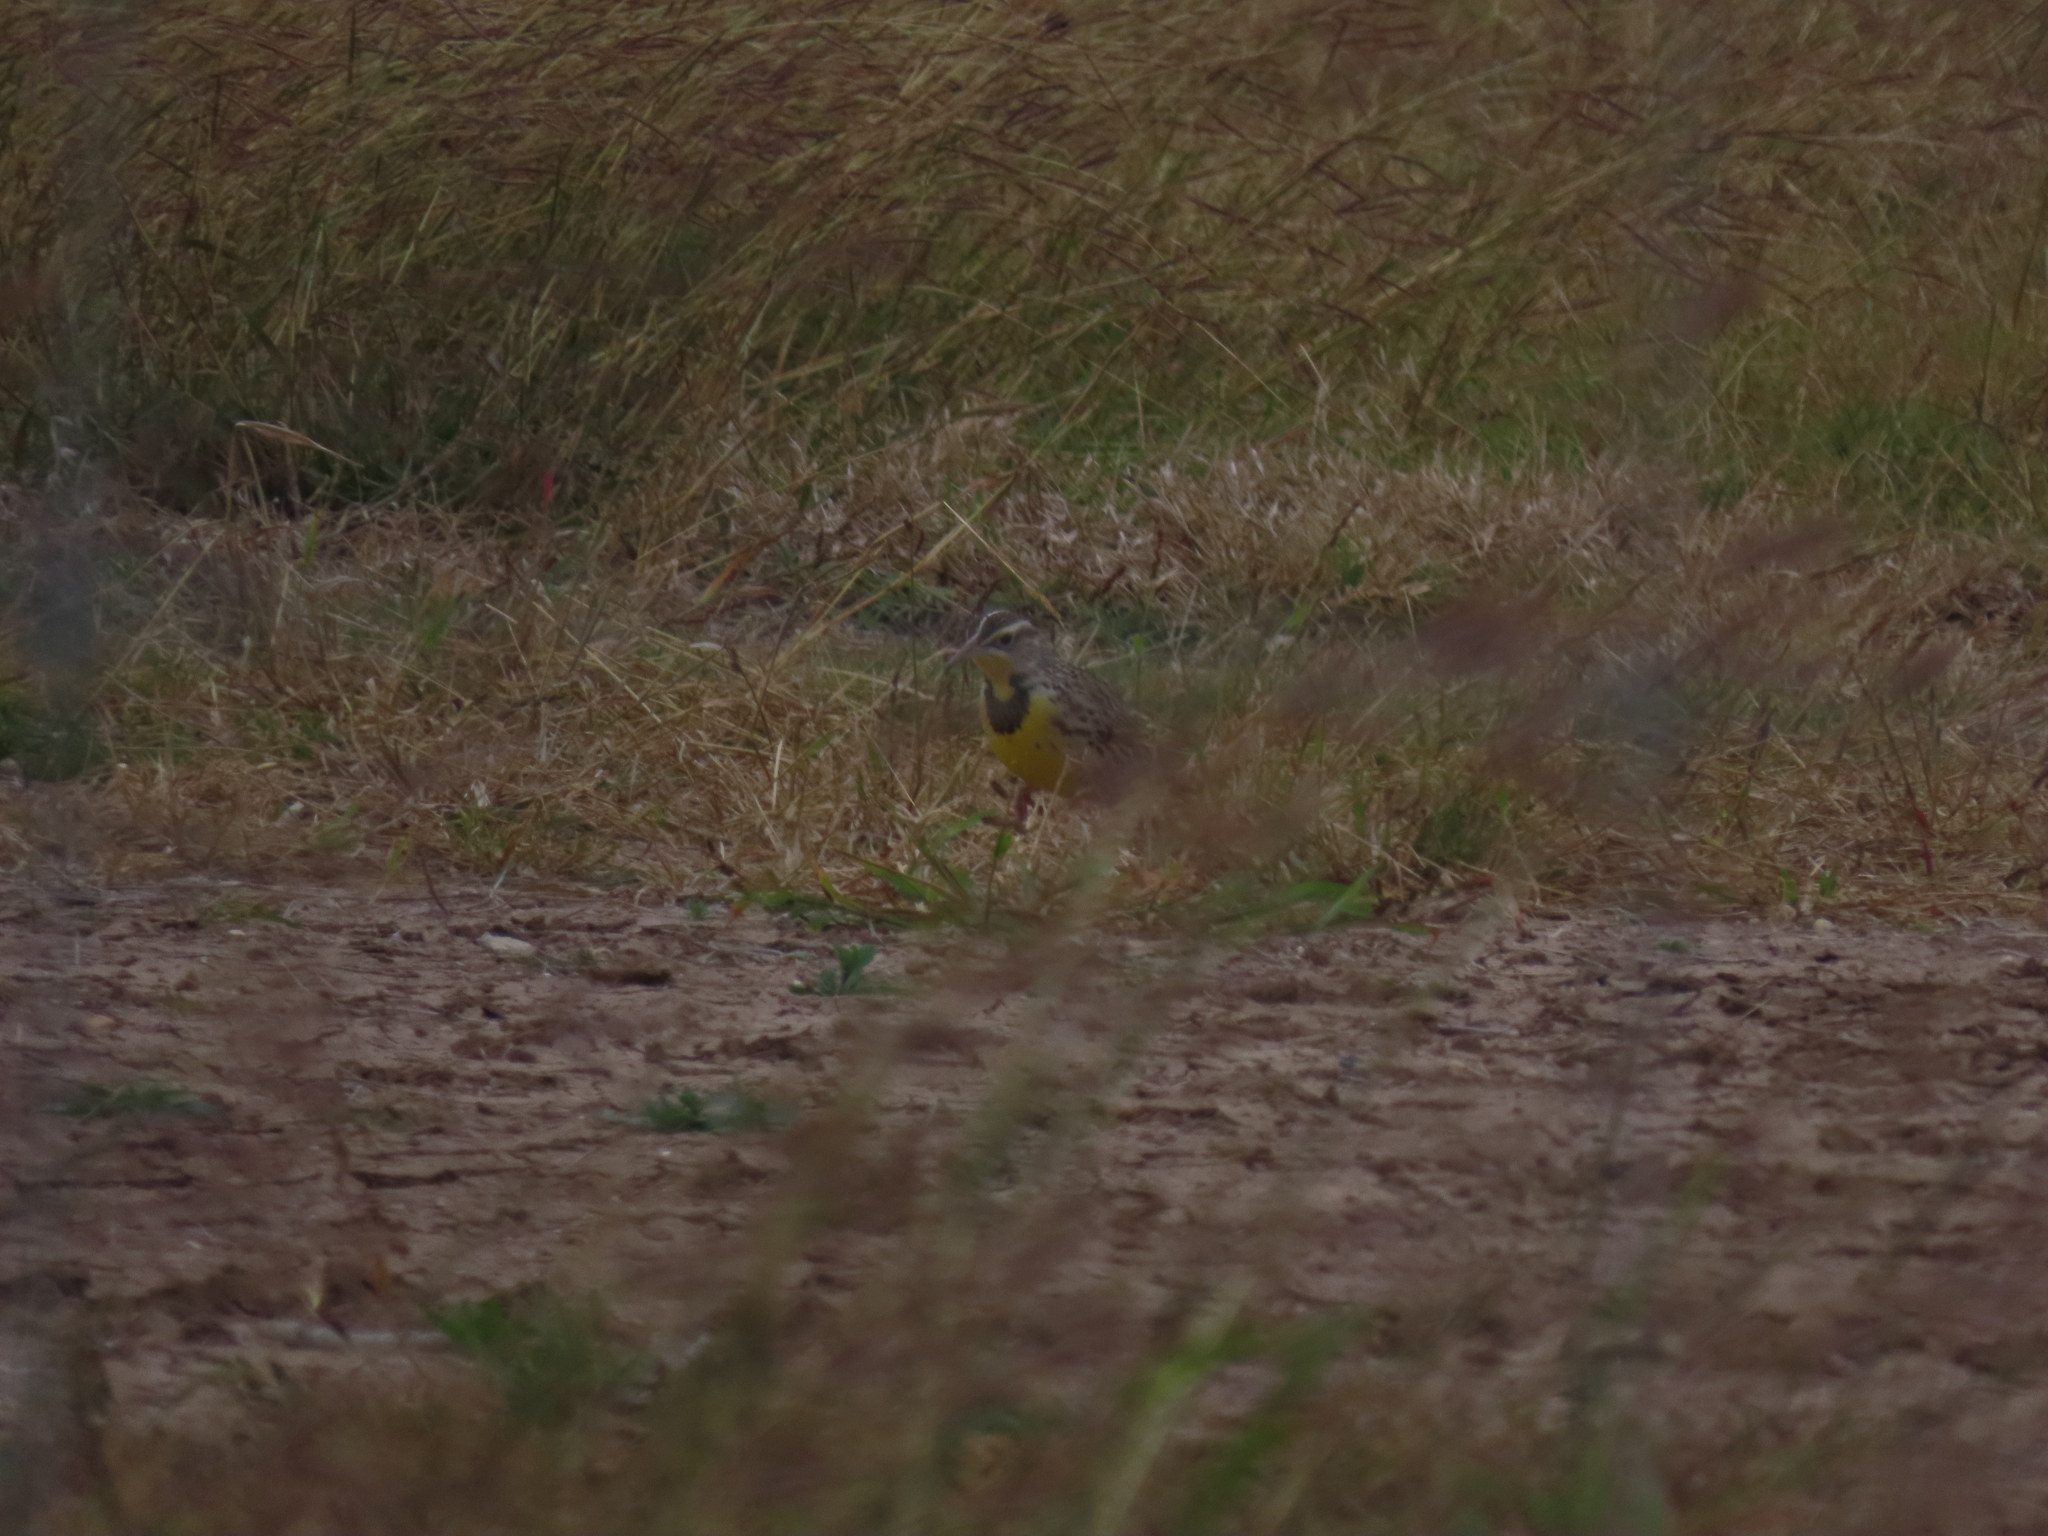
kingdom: Animalia
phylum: Chordata
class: Aves
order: Passeriformes
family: Icteridae
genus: Sturnella
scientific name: Sturnella magna
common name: Eastern meadowlark
